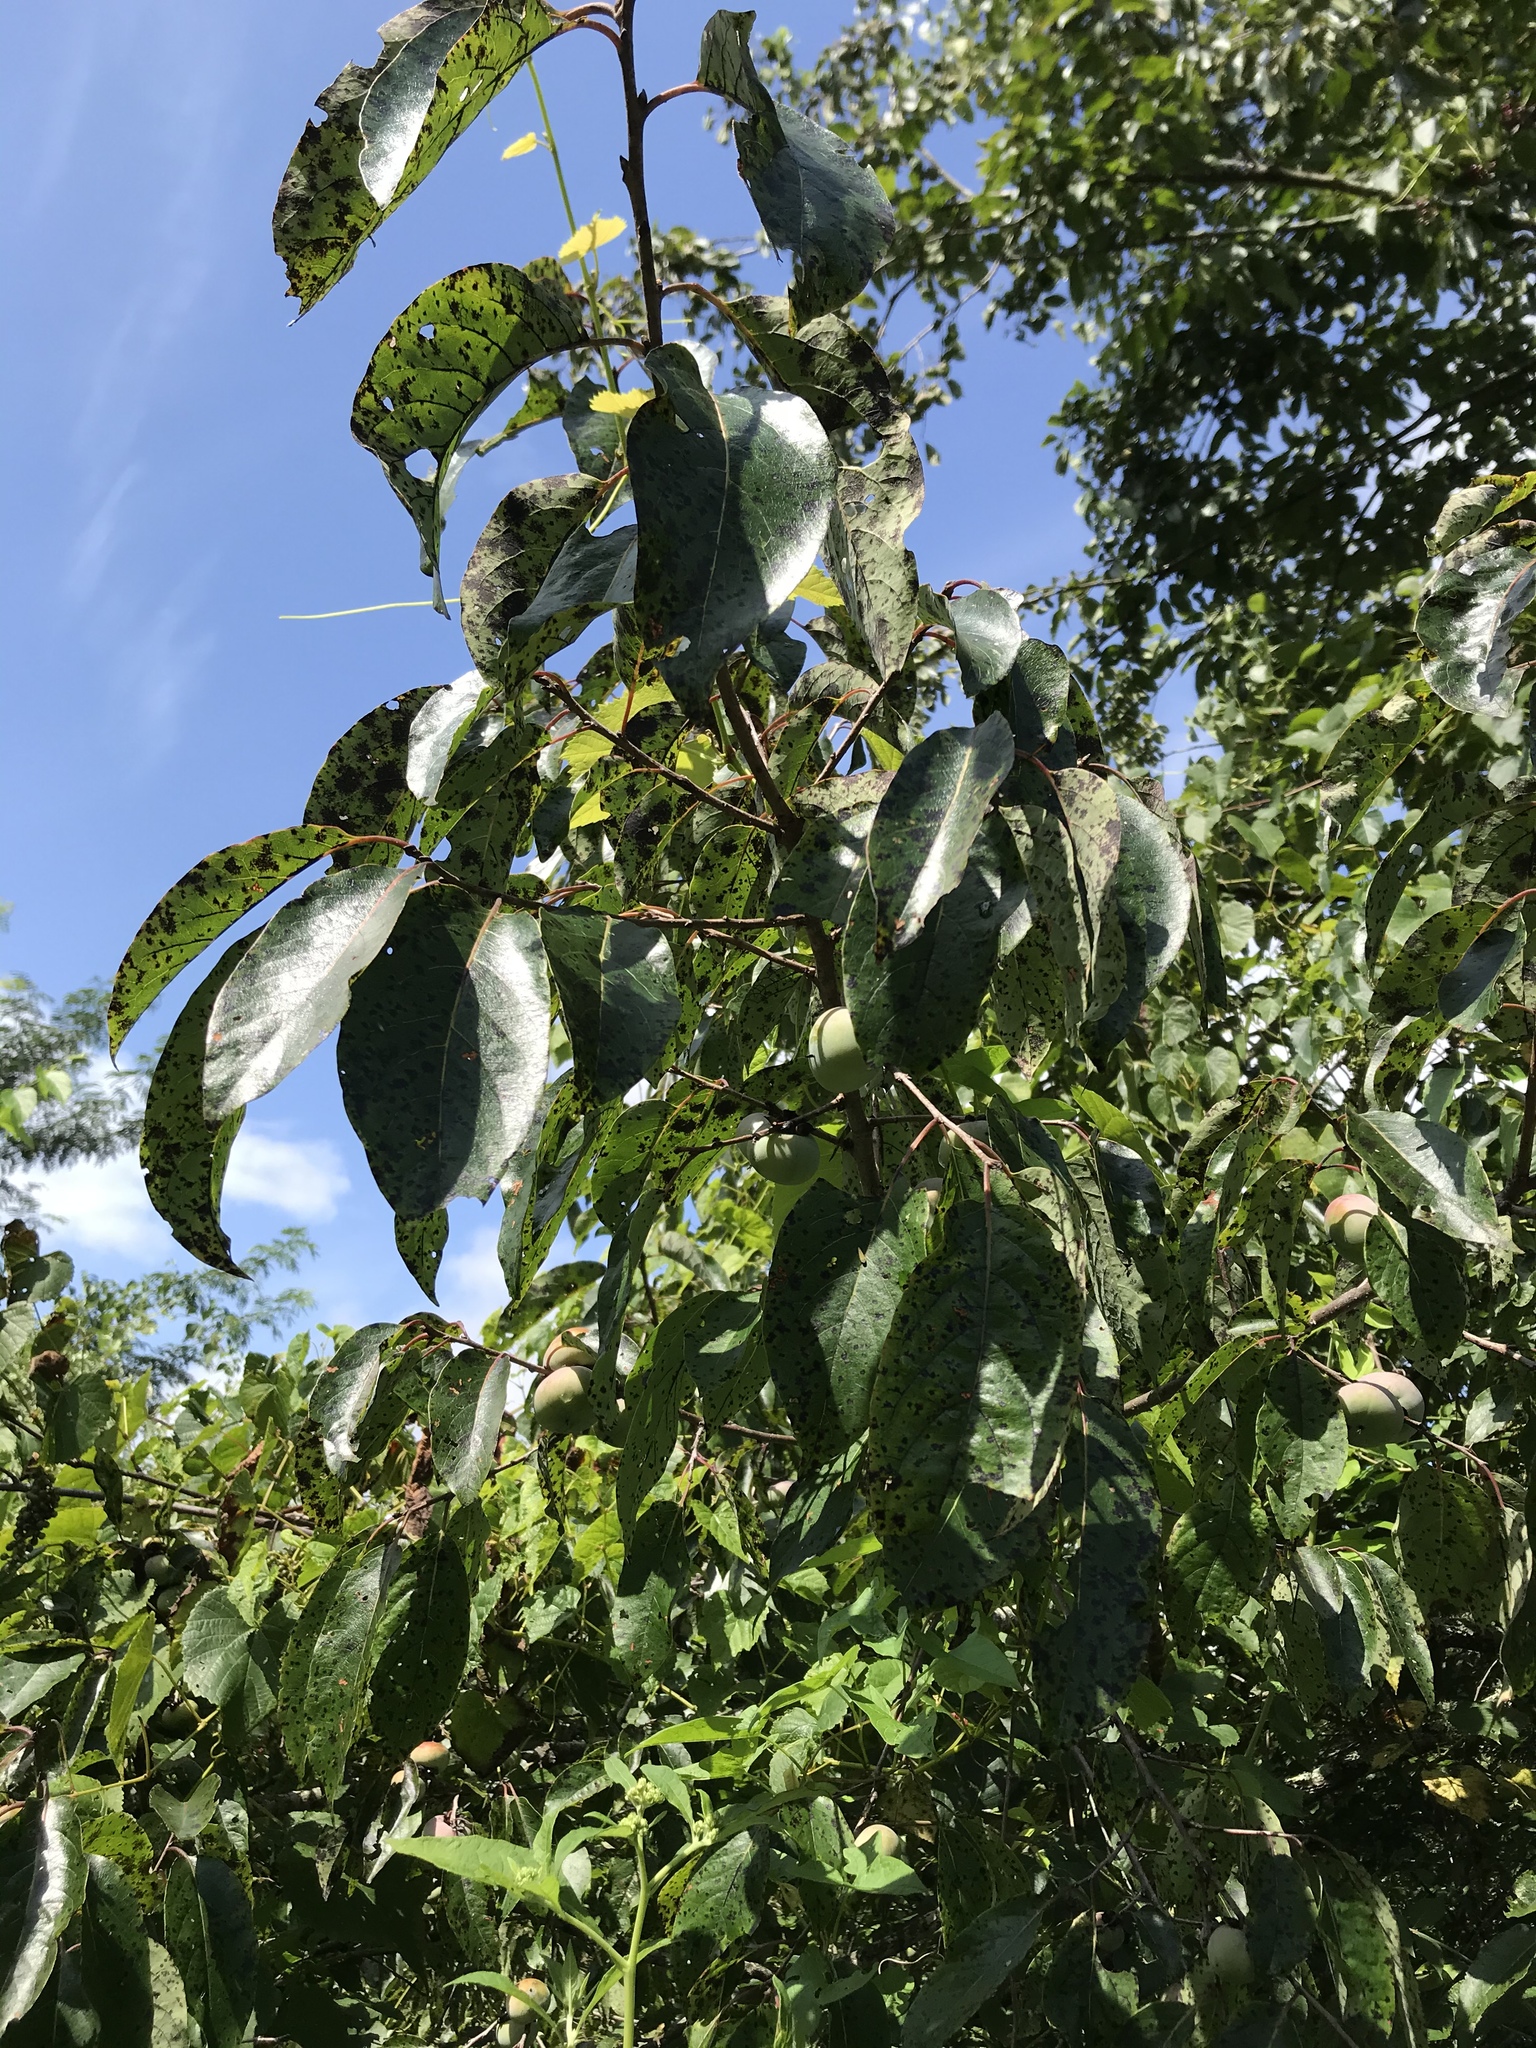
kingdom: Plantae
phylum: Tracheophyta
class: Magnoliopsida
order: Ericales
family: Ebenaceae
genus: Diospyros
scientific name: Diospyros virginiana
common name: Persimmon
